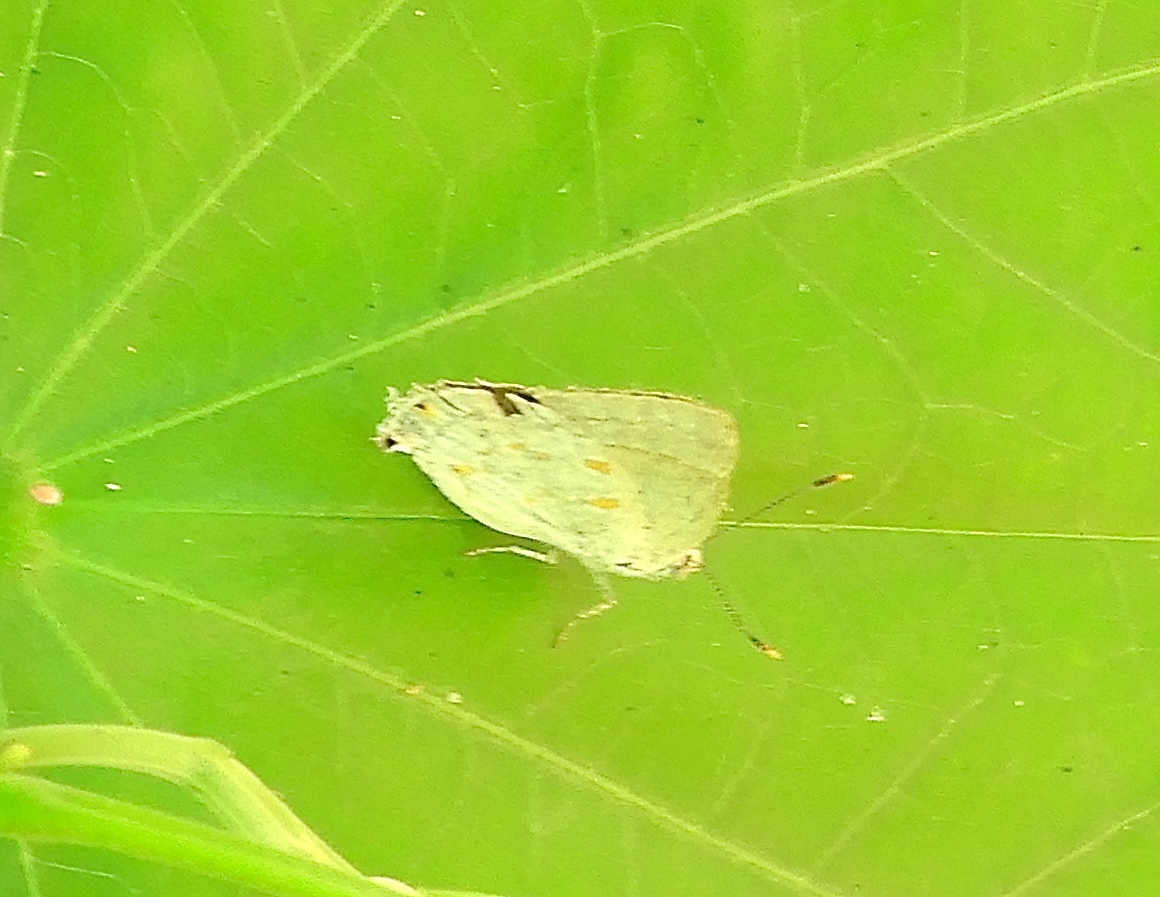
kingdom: Animalia
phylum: Arthropoda
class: Insecta
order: Lepidoptera
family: Lycaenidae
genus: Tmolus
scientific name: Tmolus
